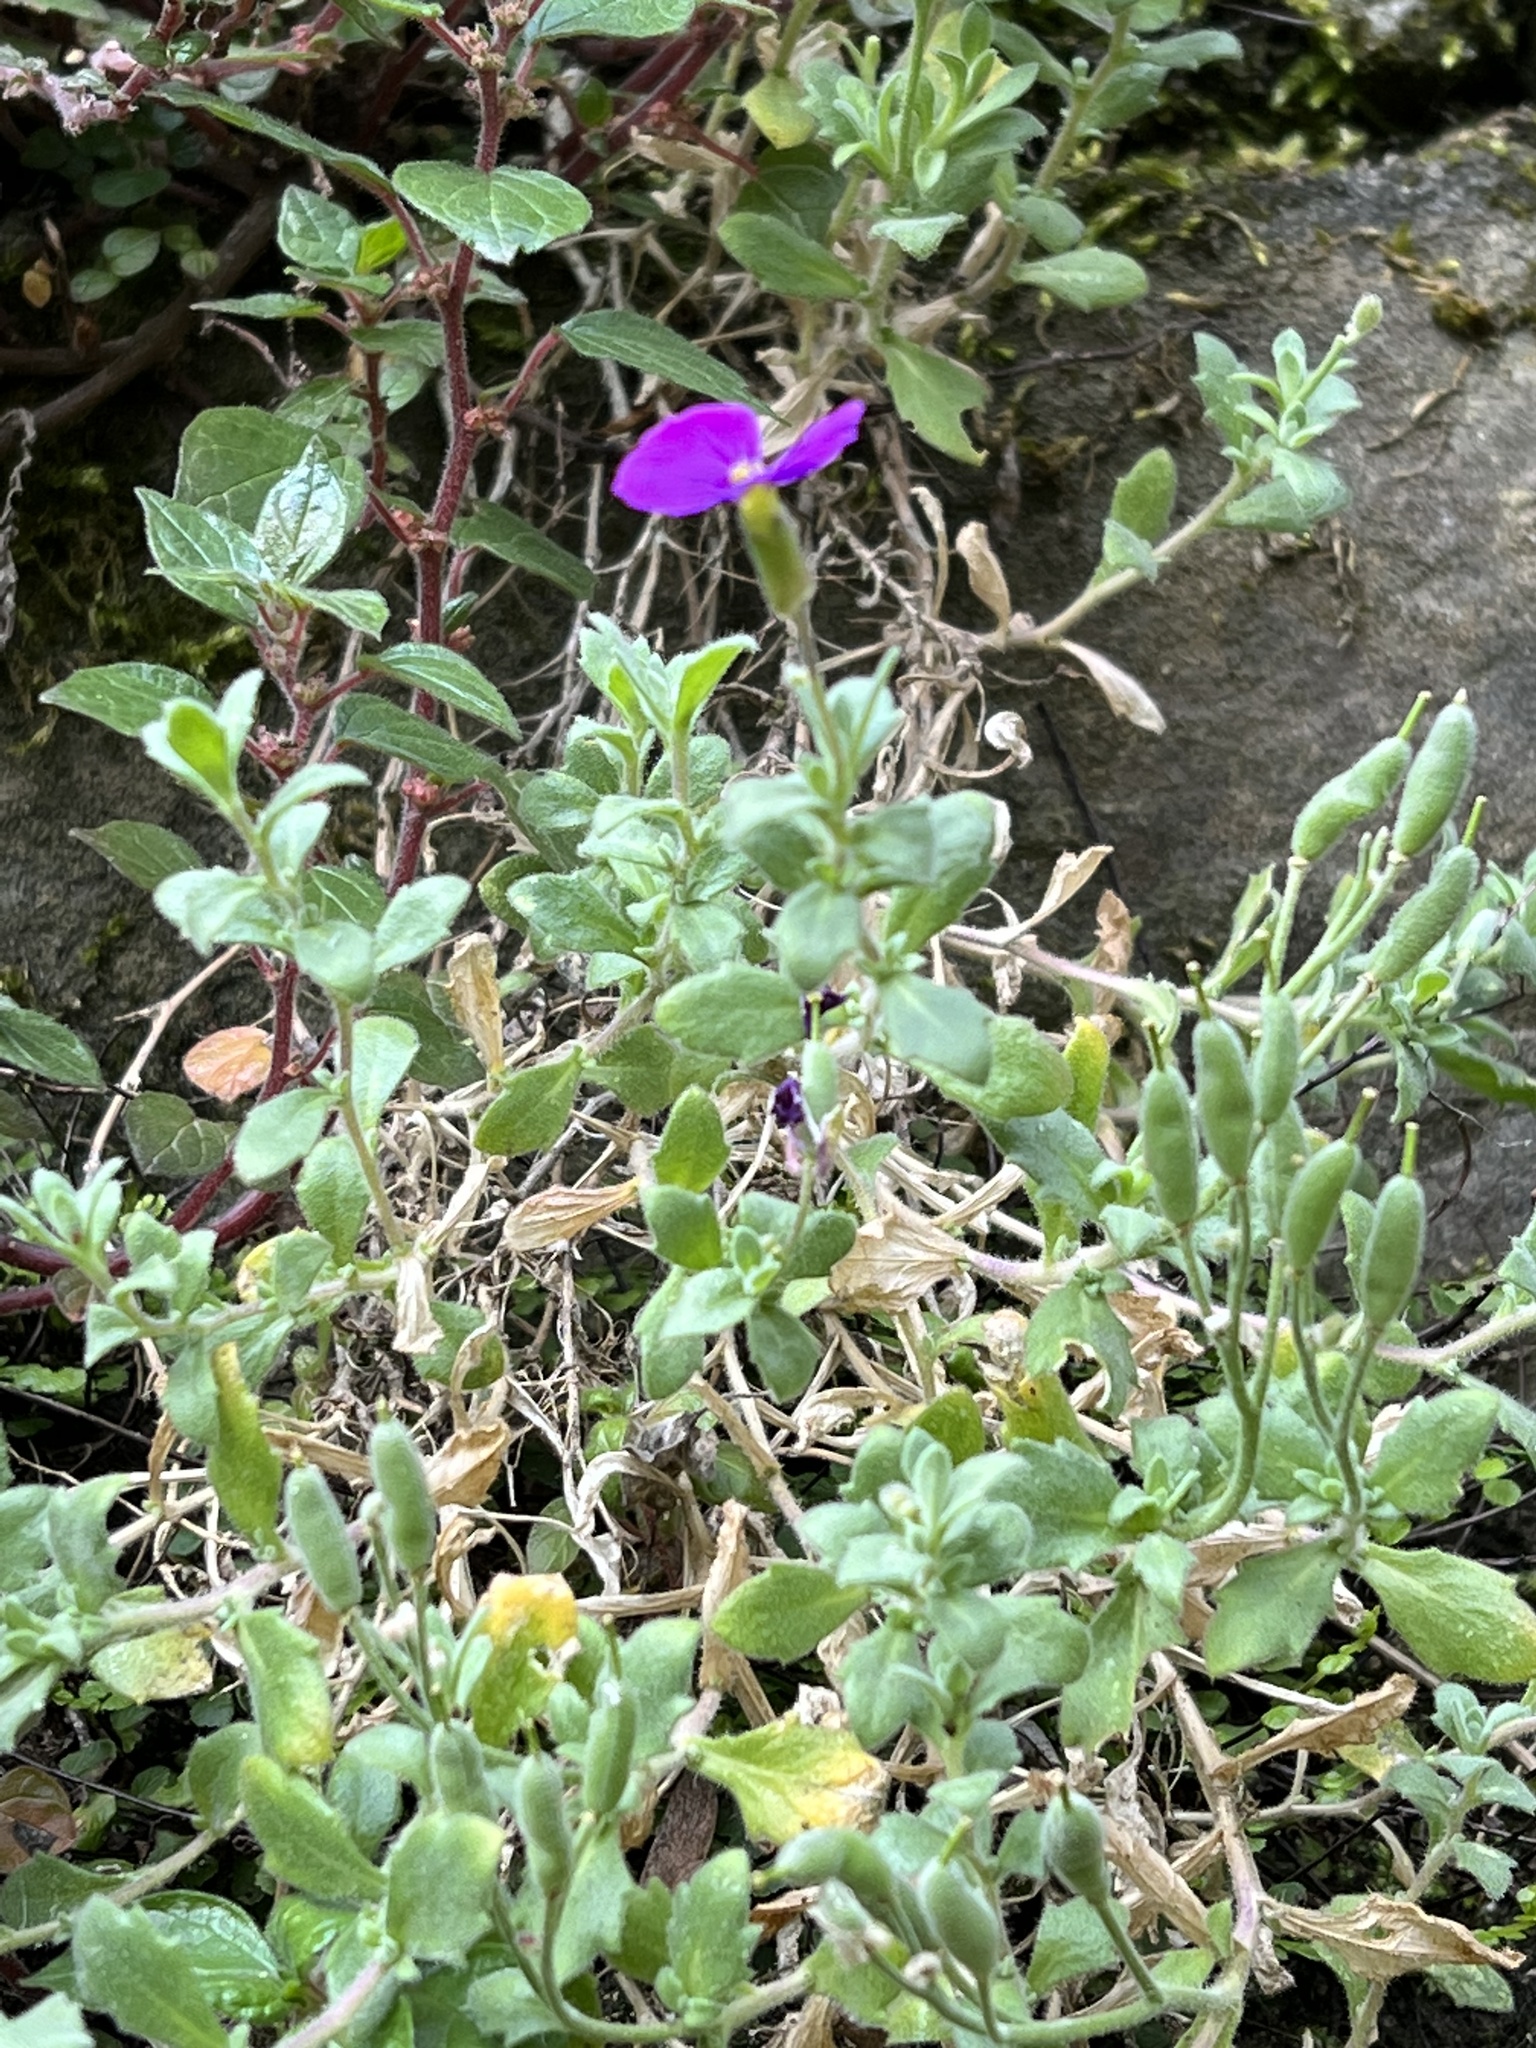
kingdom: Plantae
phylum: Tracheophyta
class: Magnoliopsida
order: Brassicales
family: Brassicaceae
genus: Aubrieta
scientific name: Aubrieta deltoidea
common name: Aubretia
